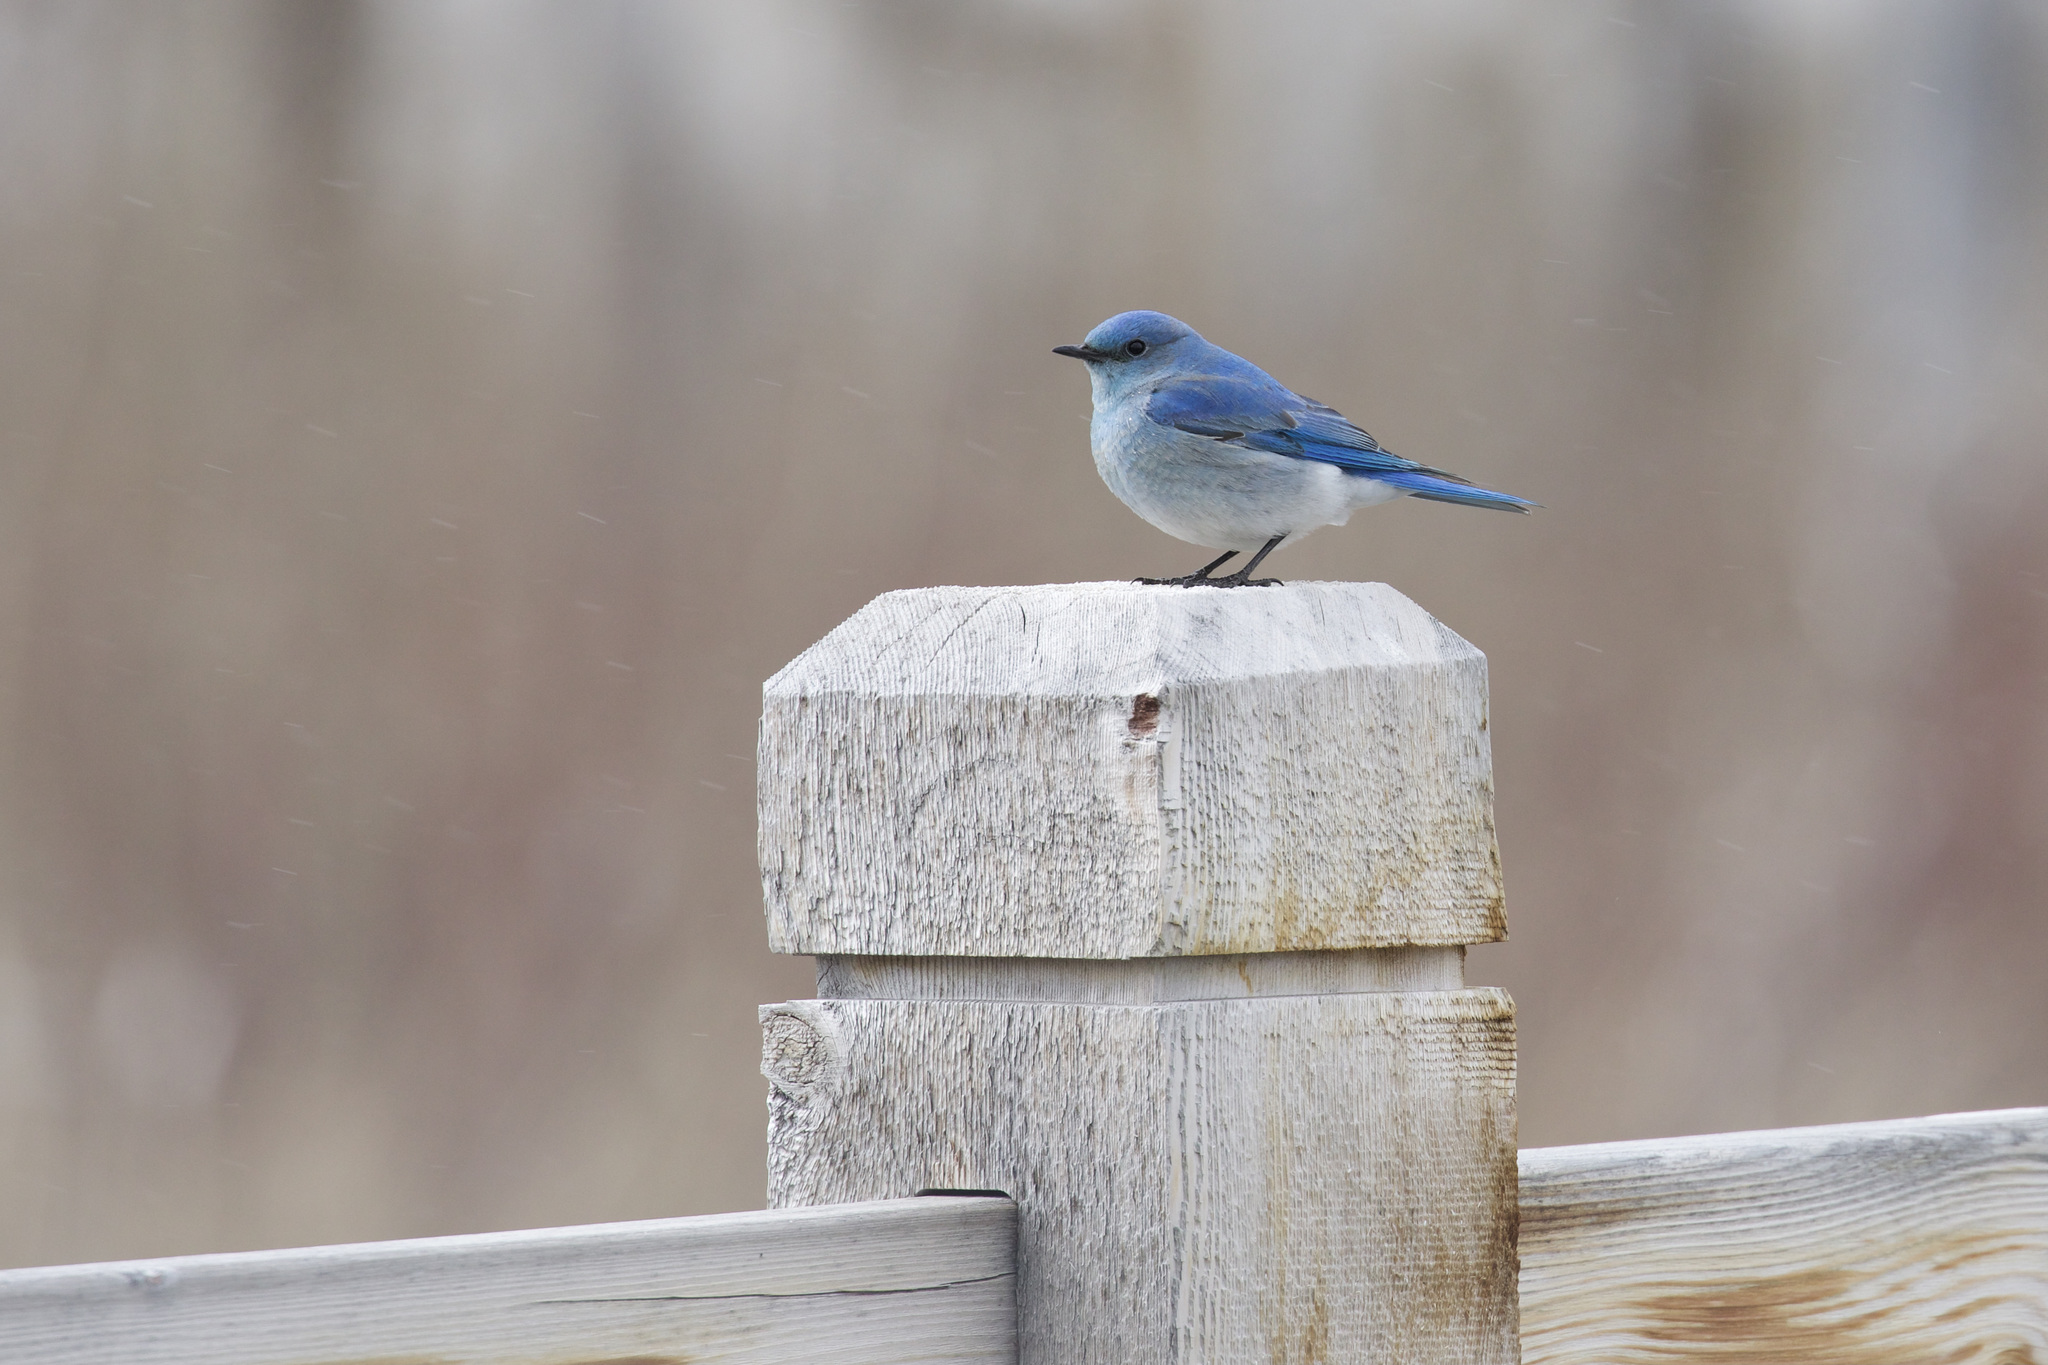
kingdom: Animalia
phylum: Chordata
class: Aves
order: Passeriformes
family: Turdidae
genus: Sialia
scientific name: Sialia currucoides
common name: Mountain bluebird
